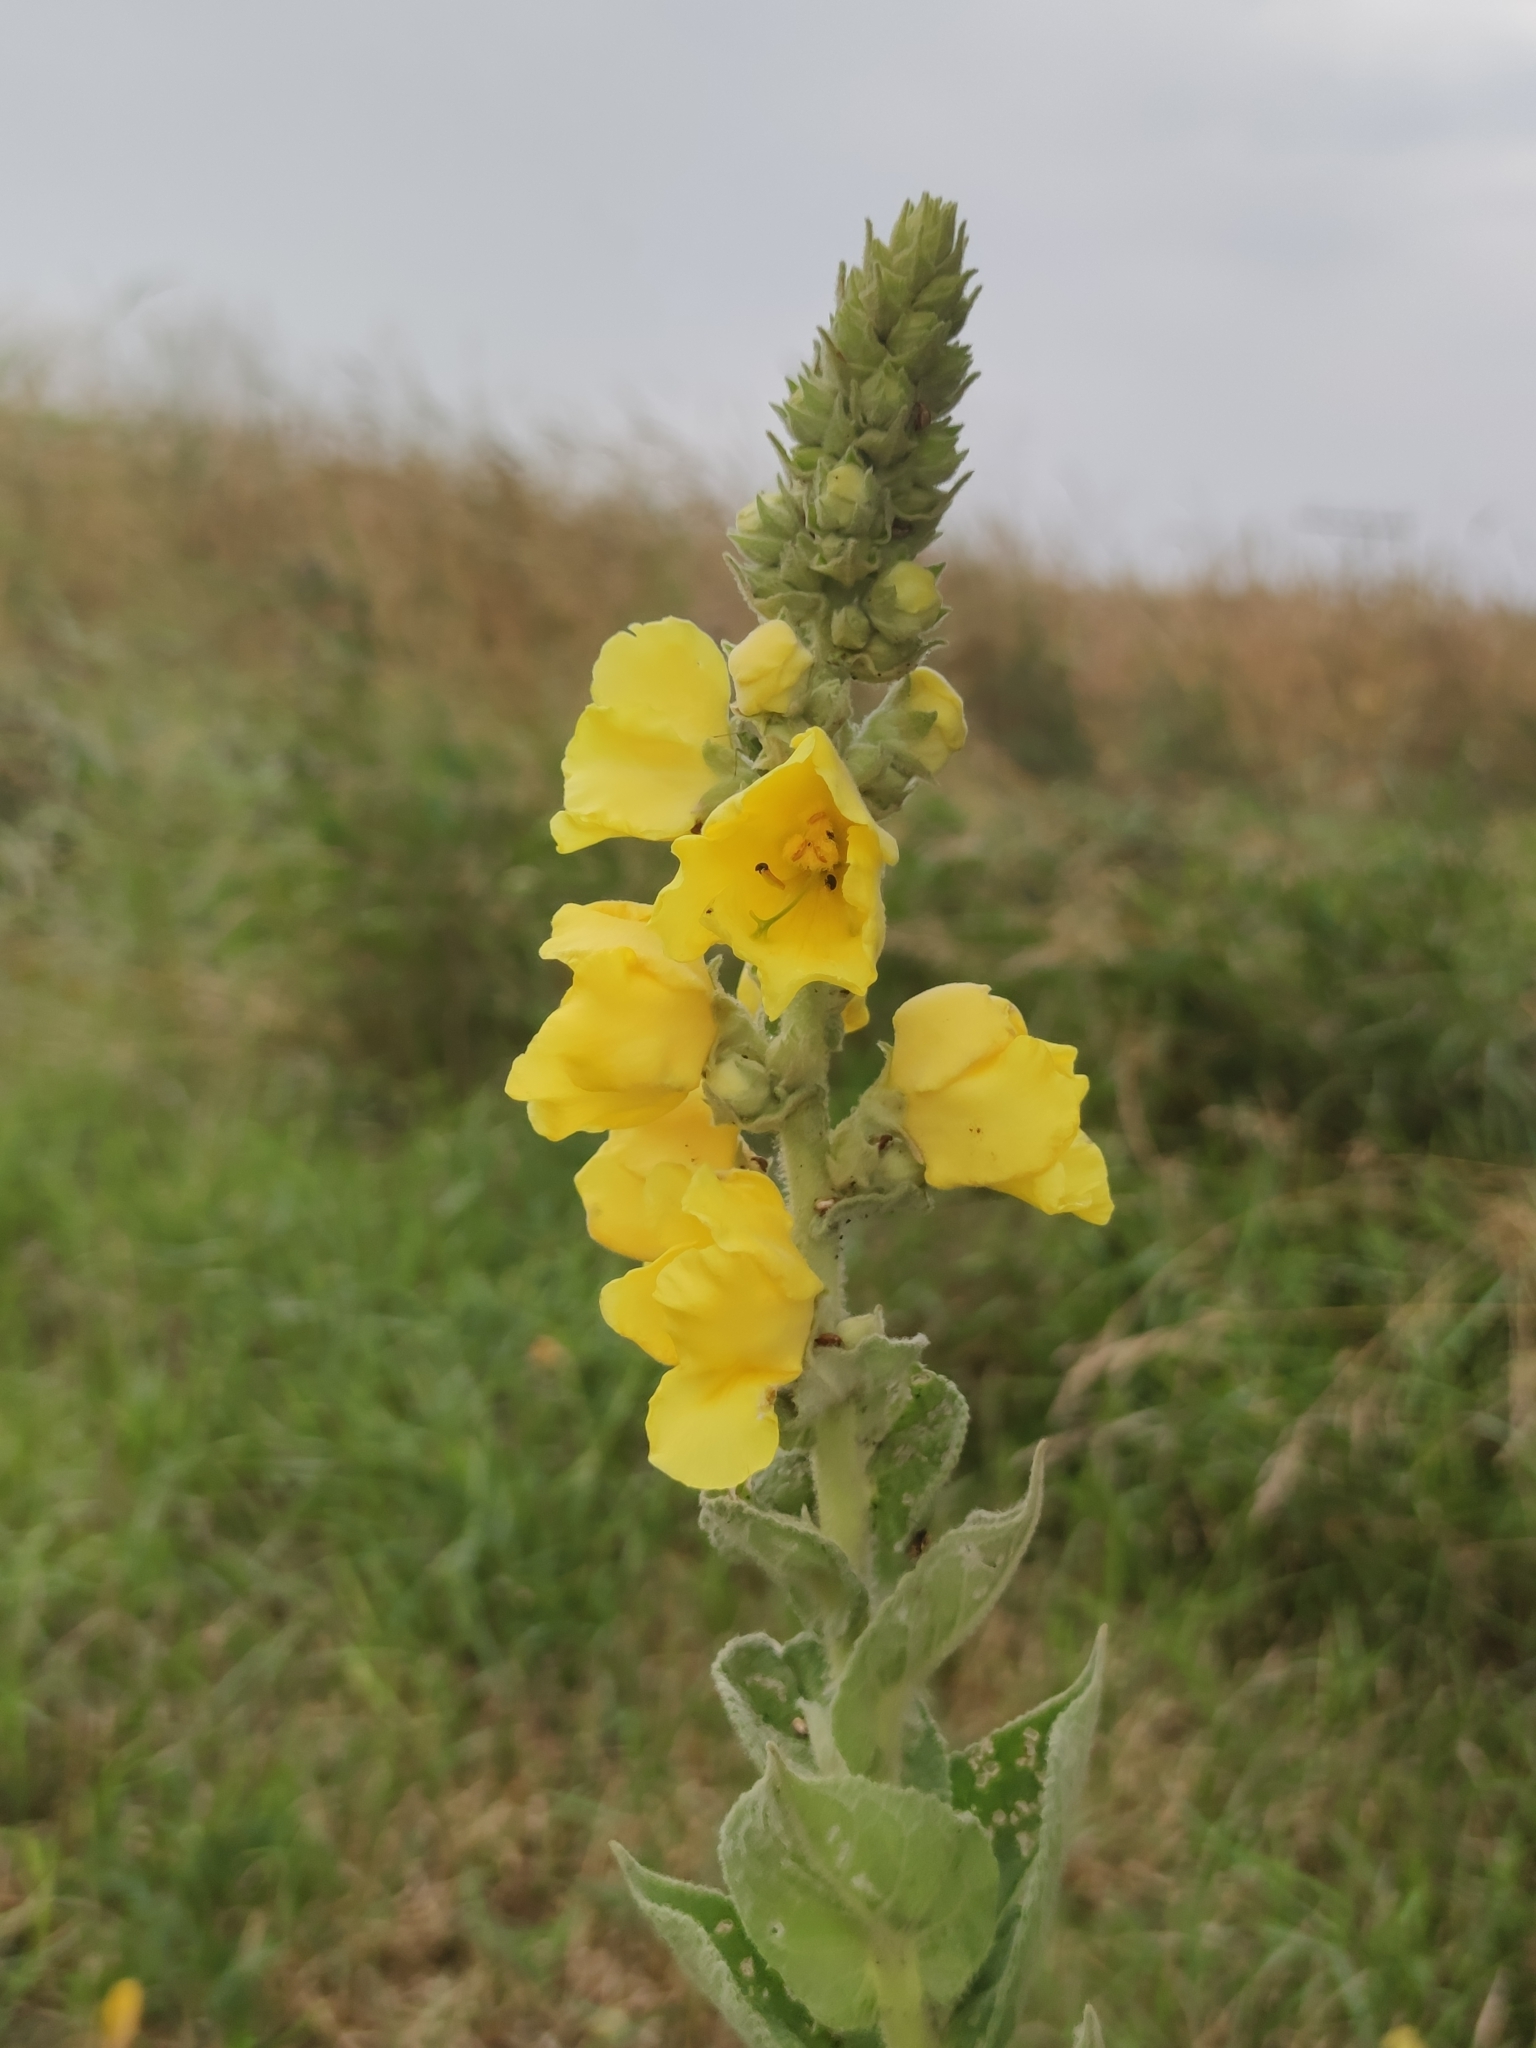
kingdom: Plantae
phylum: Tracheophyta
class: Magnoliopsida
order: Lamiales
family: Scrophulariaceae
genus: Verbascum
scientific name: Verbascum phlomoides
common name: Orange mullein
